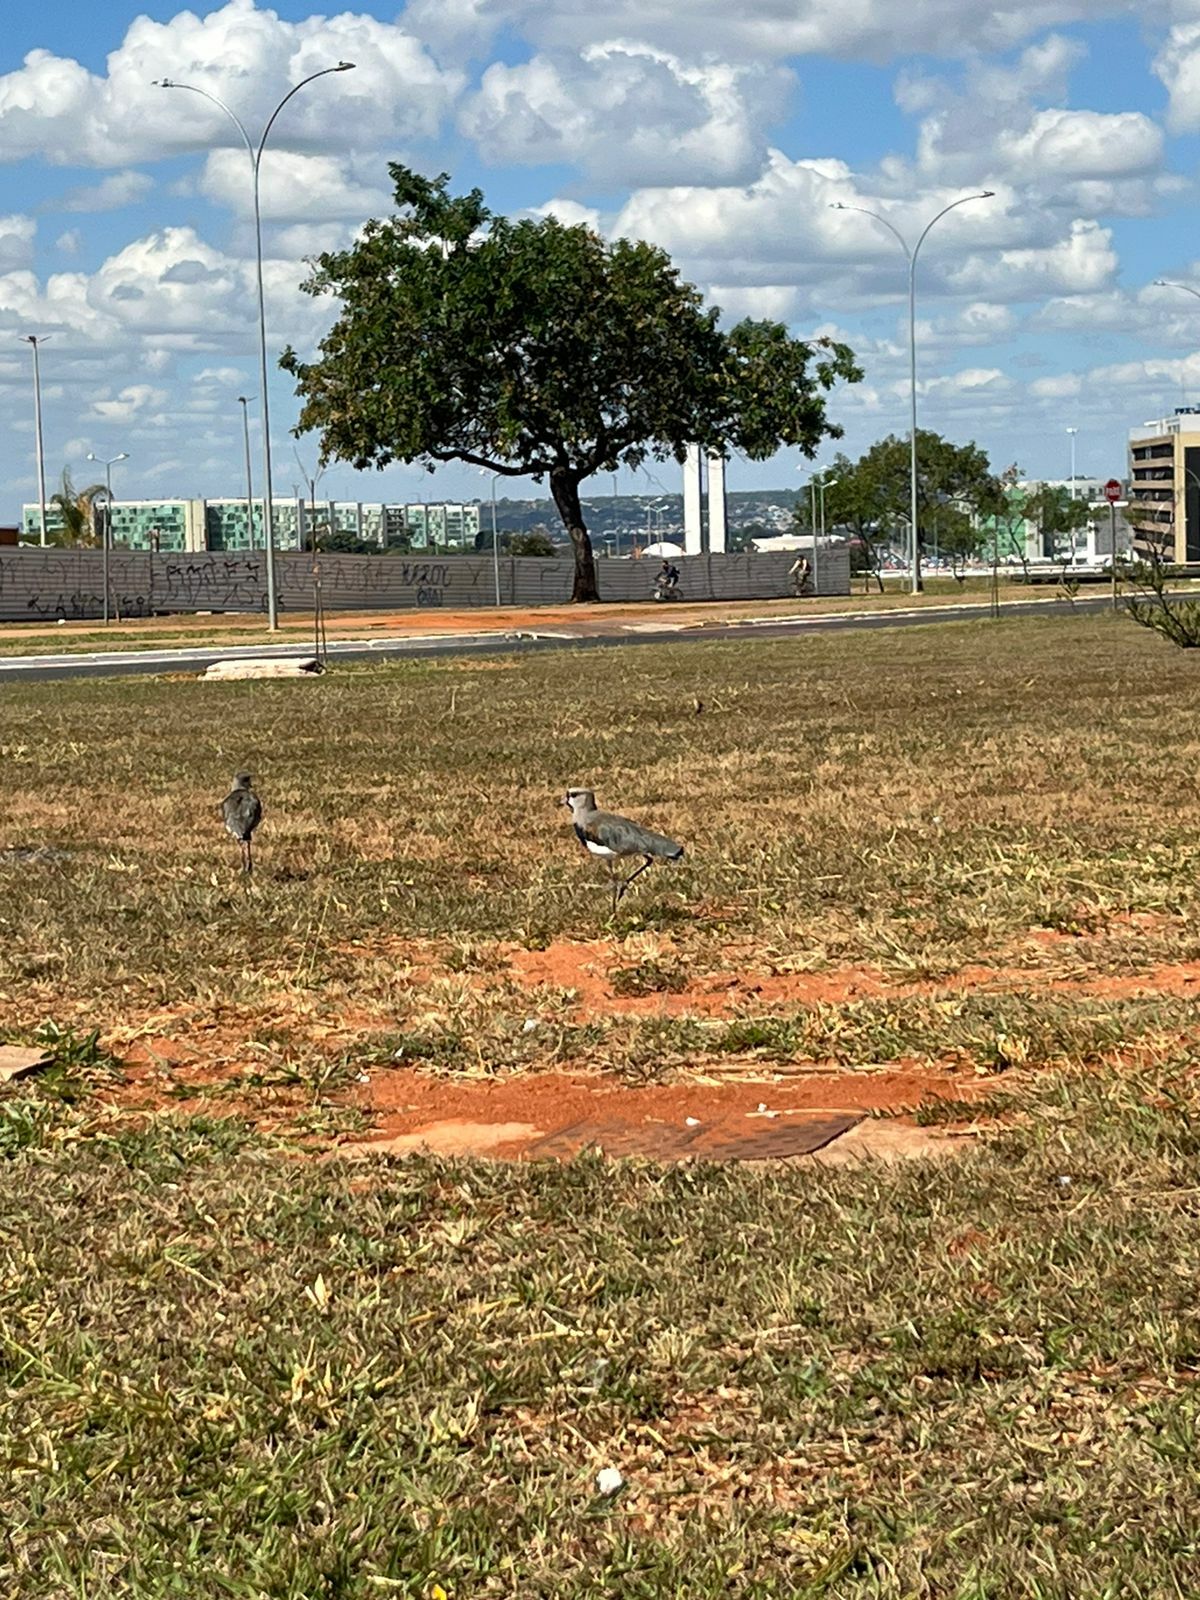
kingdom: Animalia
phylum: Chordata
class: Aves
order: Charadriiformes
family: Charadriidae
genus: Vanellus
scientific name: Vanellus chilensis
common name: Southern lapwing
